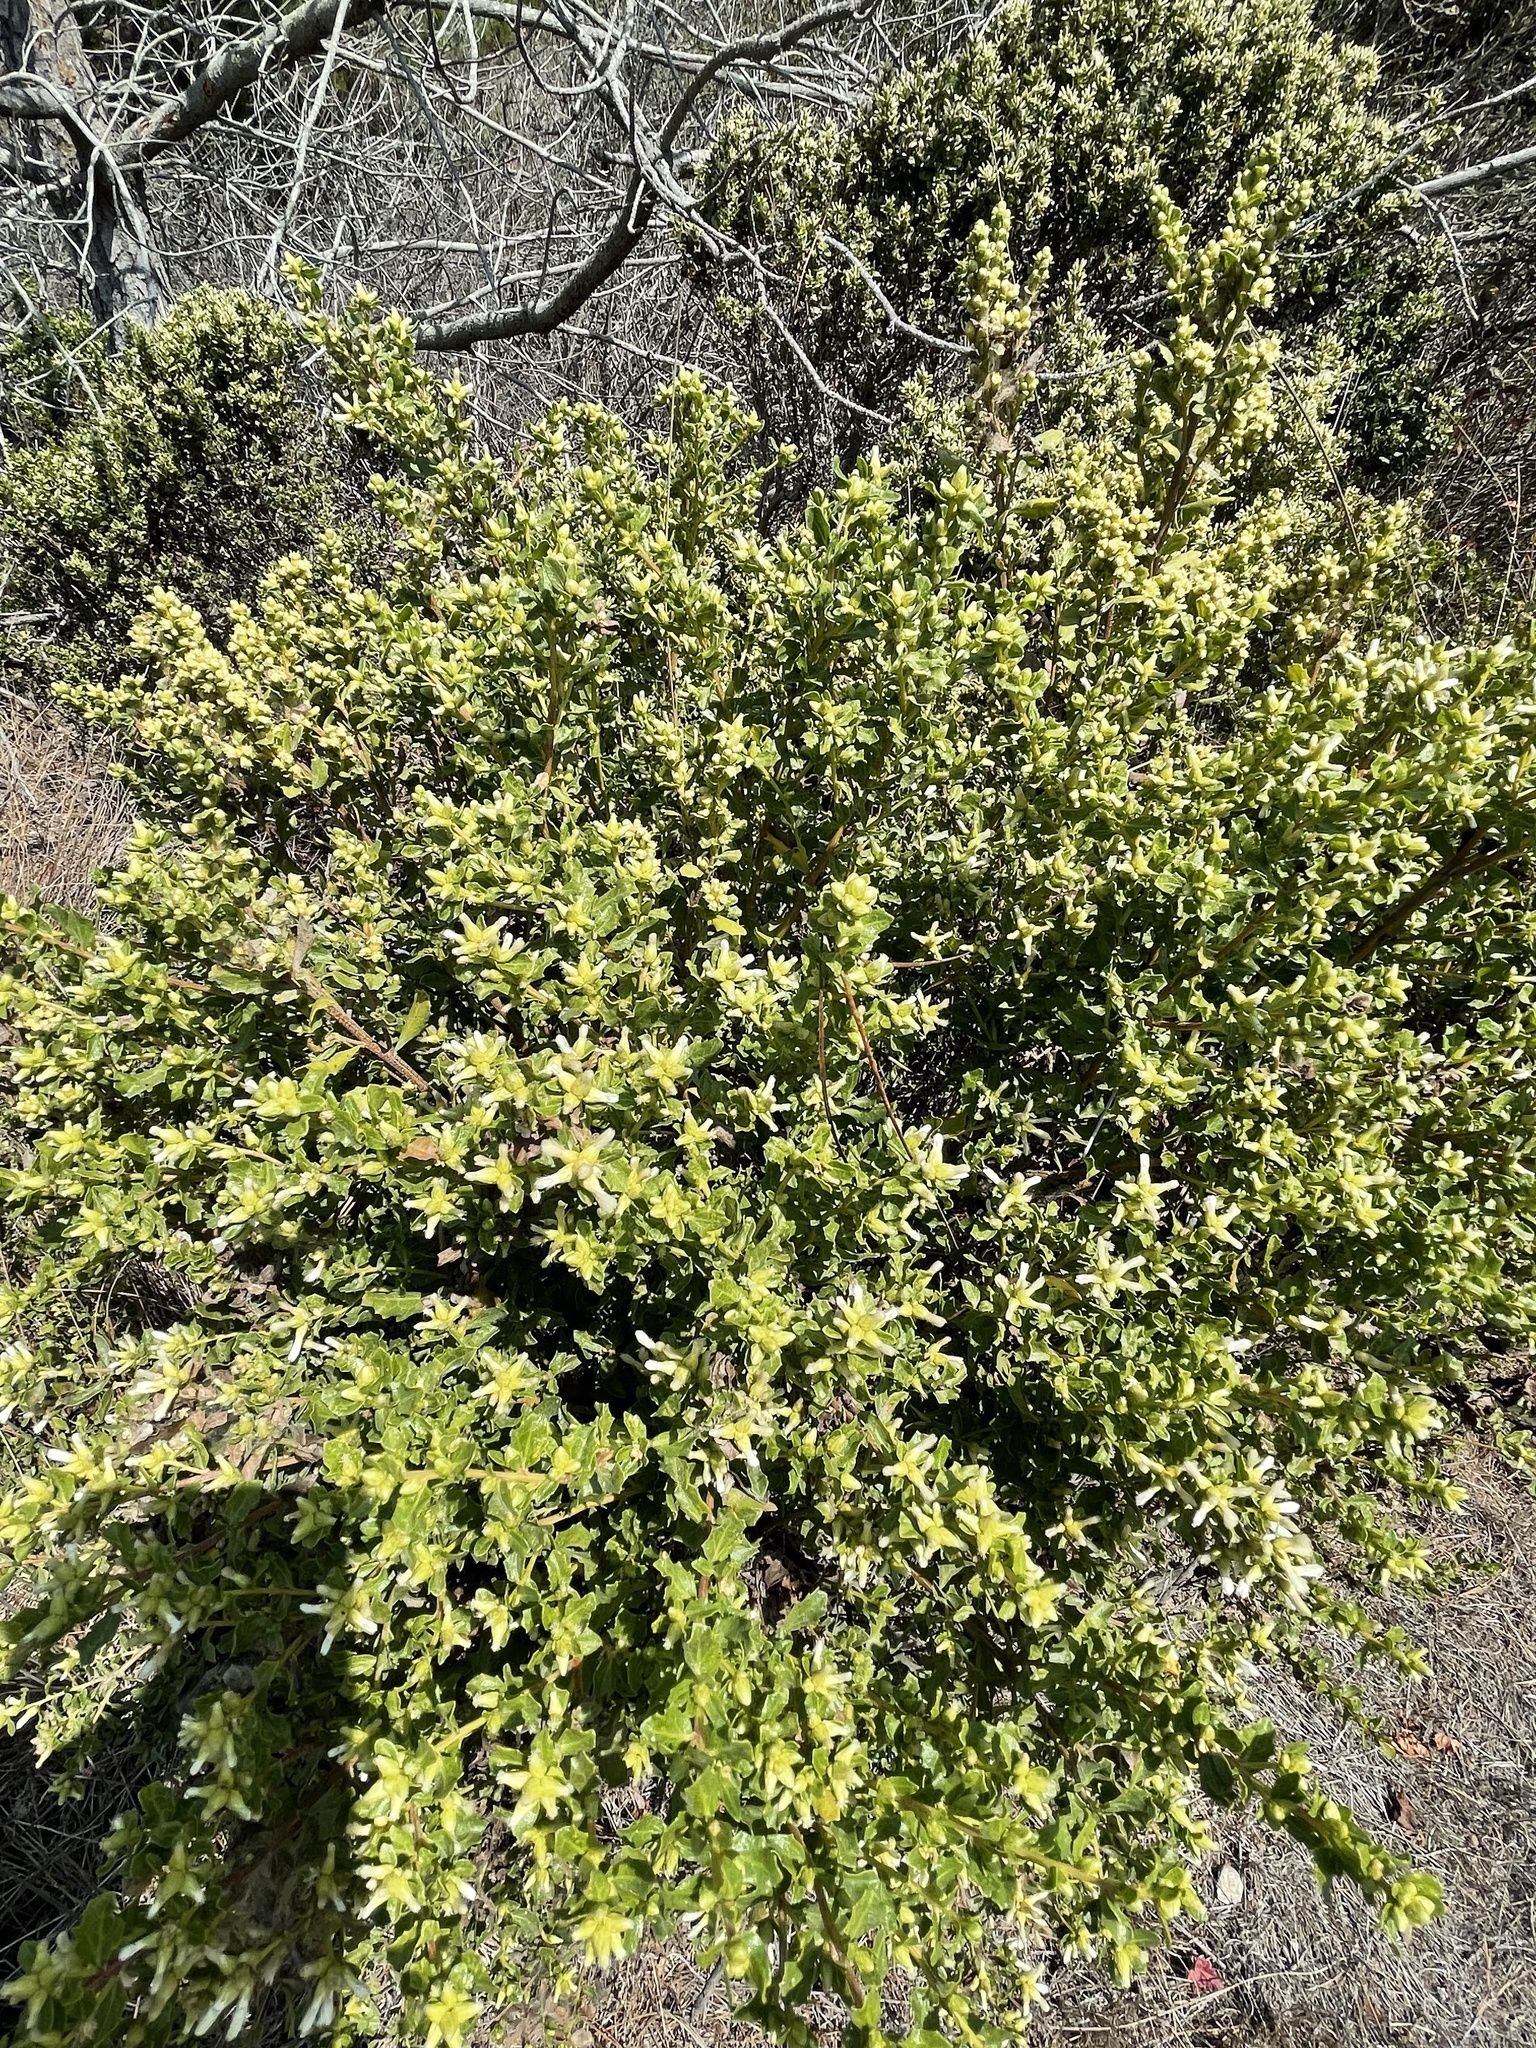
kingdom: Plantae
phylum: Tracheophyta
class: Magnoliopsida
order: Asterales
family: Asteraceae
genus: Baccharis
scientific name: Baccharis pilularis
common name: Coyotebrush
